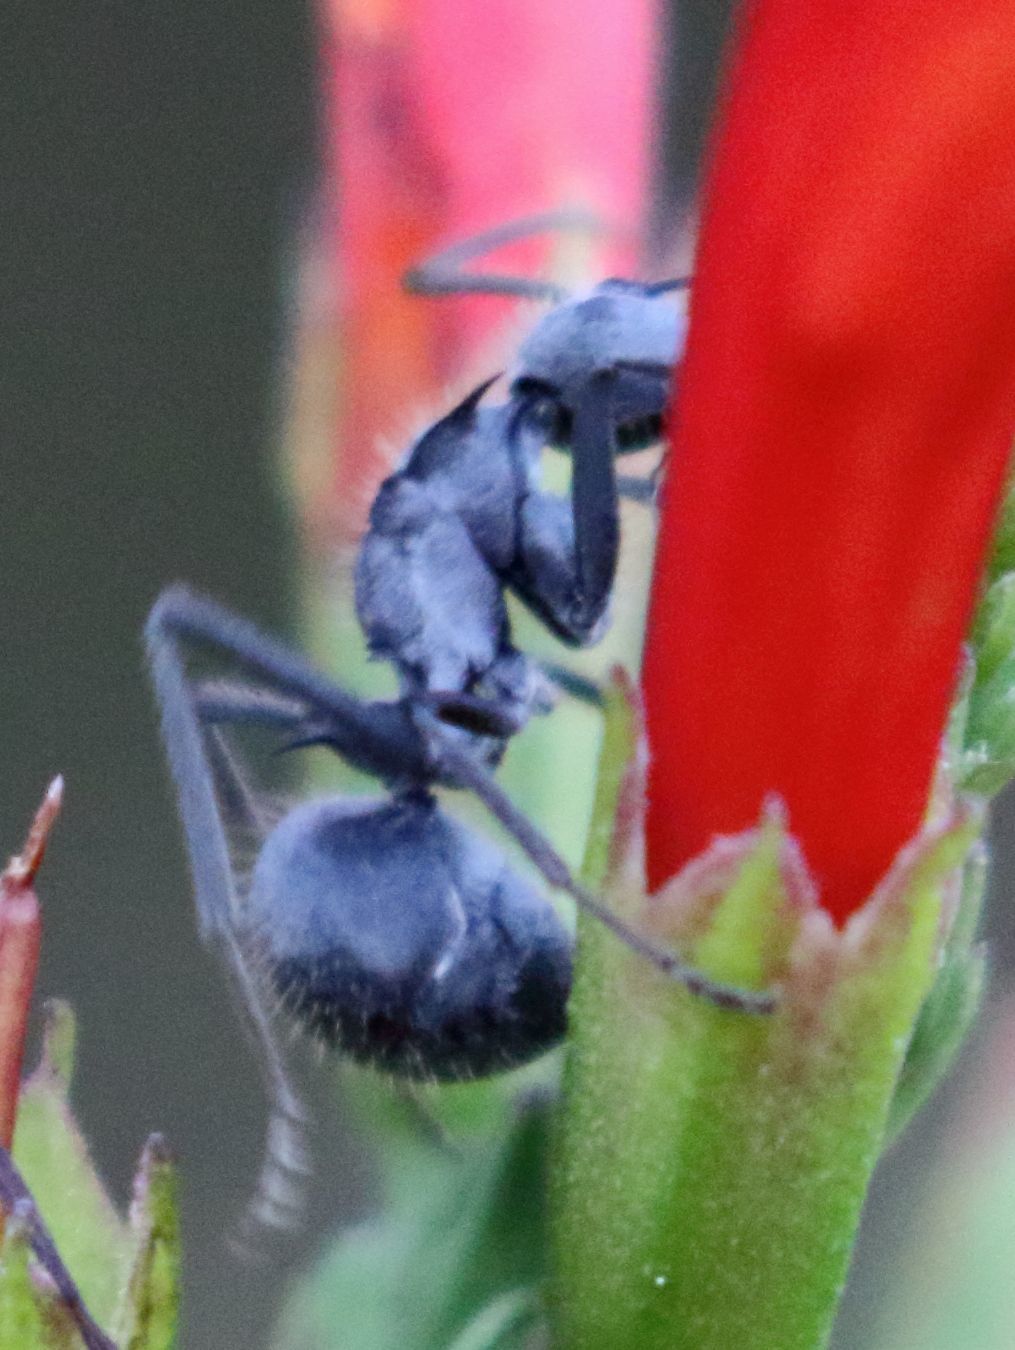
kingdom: Animalia
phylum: Arthropoda
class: Insecta
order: Hymenoptera
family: Formicidae
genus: Polyrhachis
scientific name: Polyrhachis schistacea
